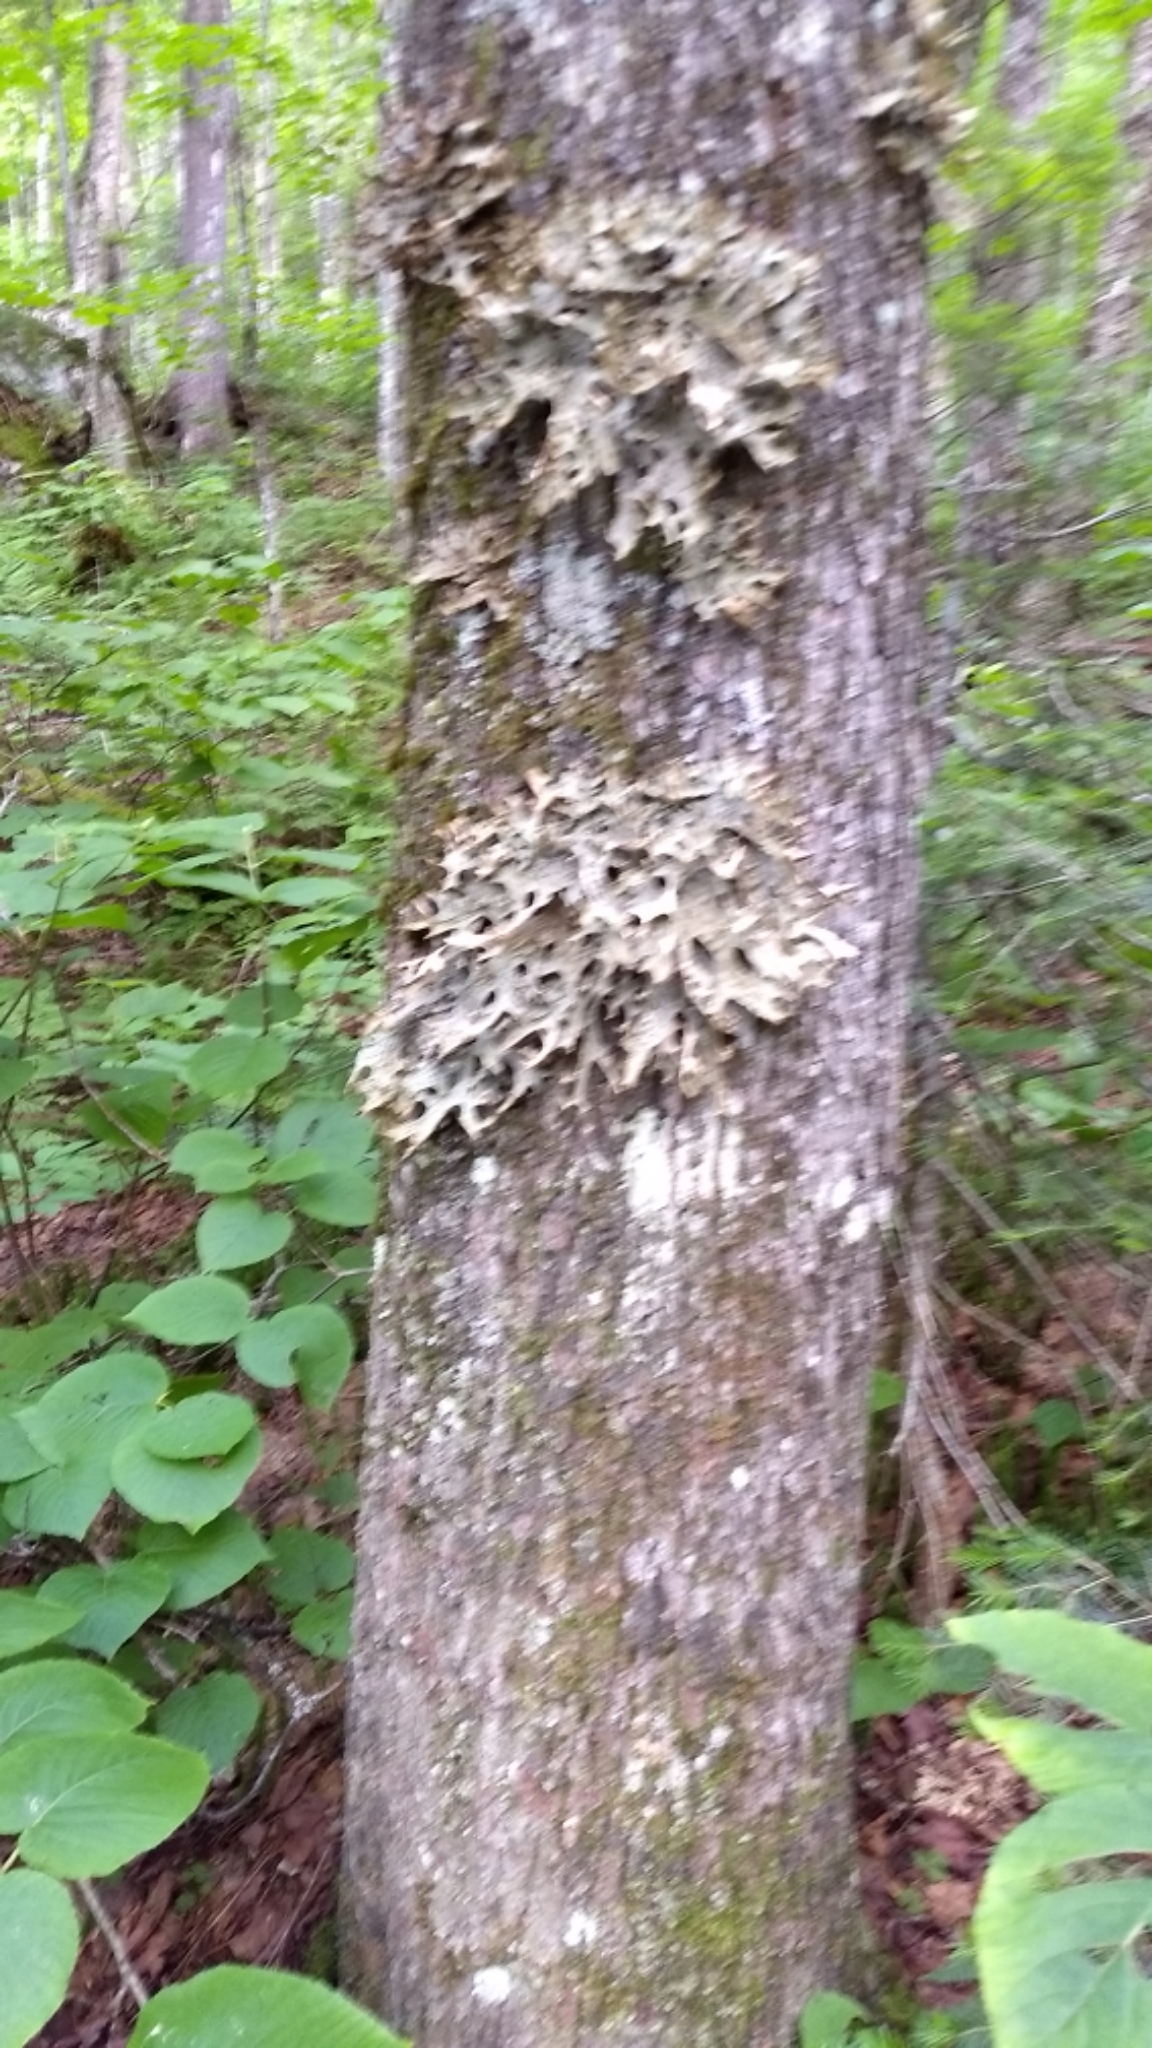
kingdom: Fungi
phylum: Ascomycota
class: Lecanoromycetes
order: Peltigerales
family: Lobariaceae
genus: Lobaria
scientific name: Lobaria pulmonaria
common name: Lungwort
